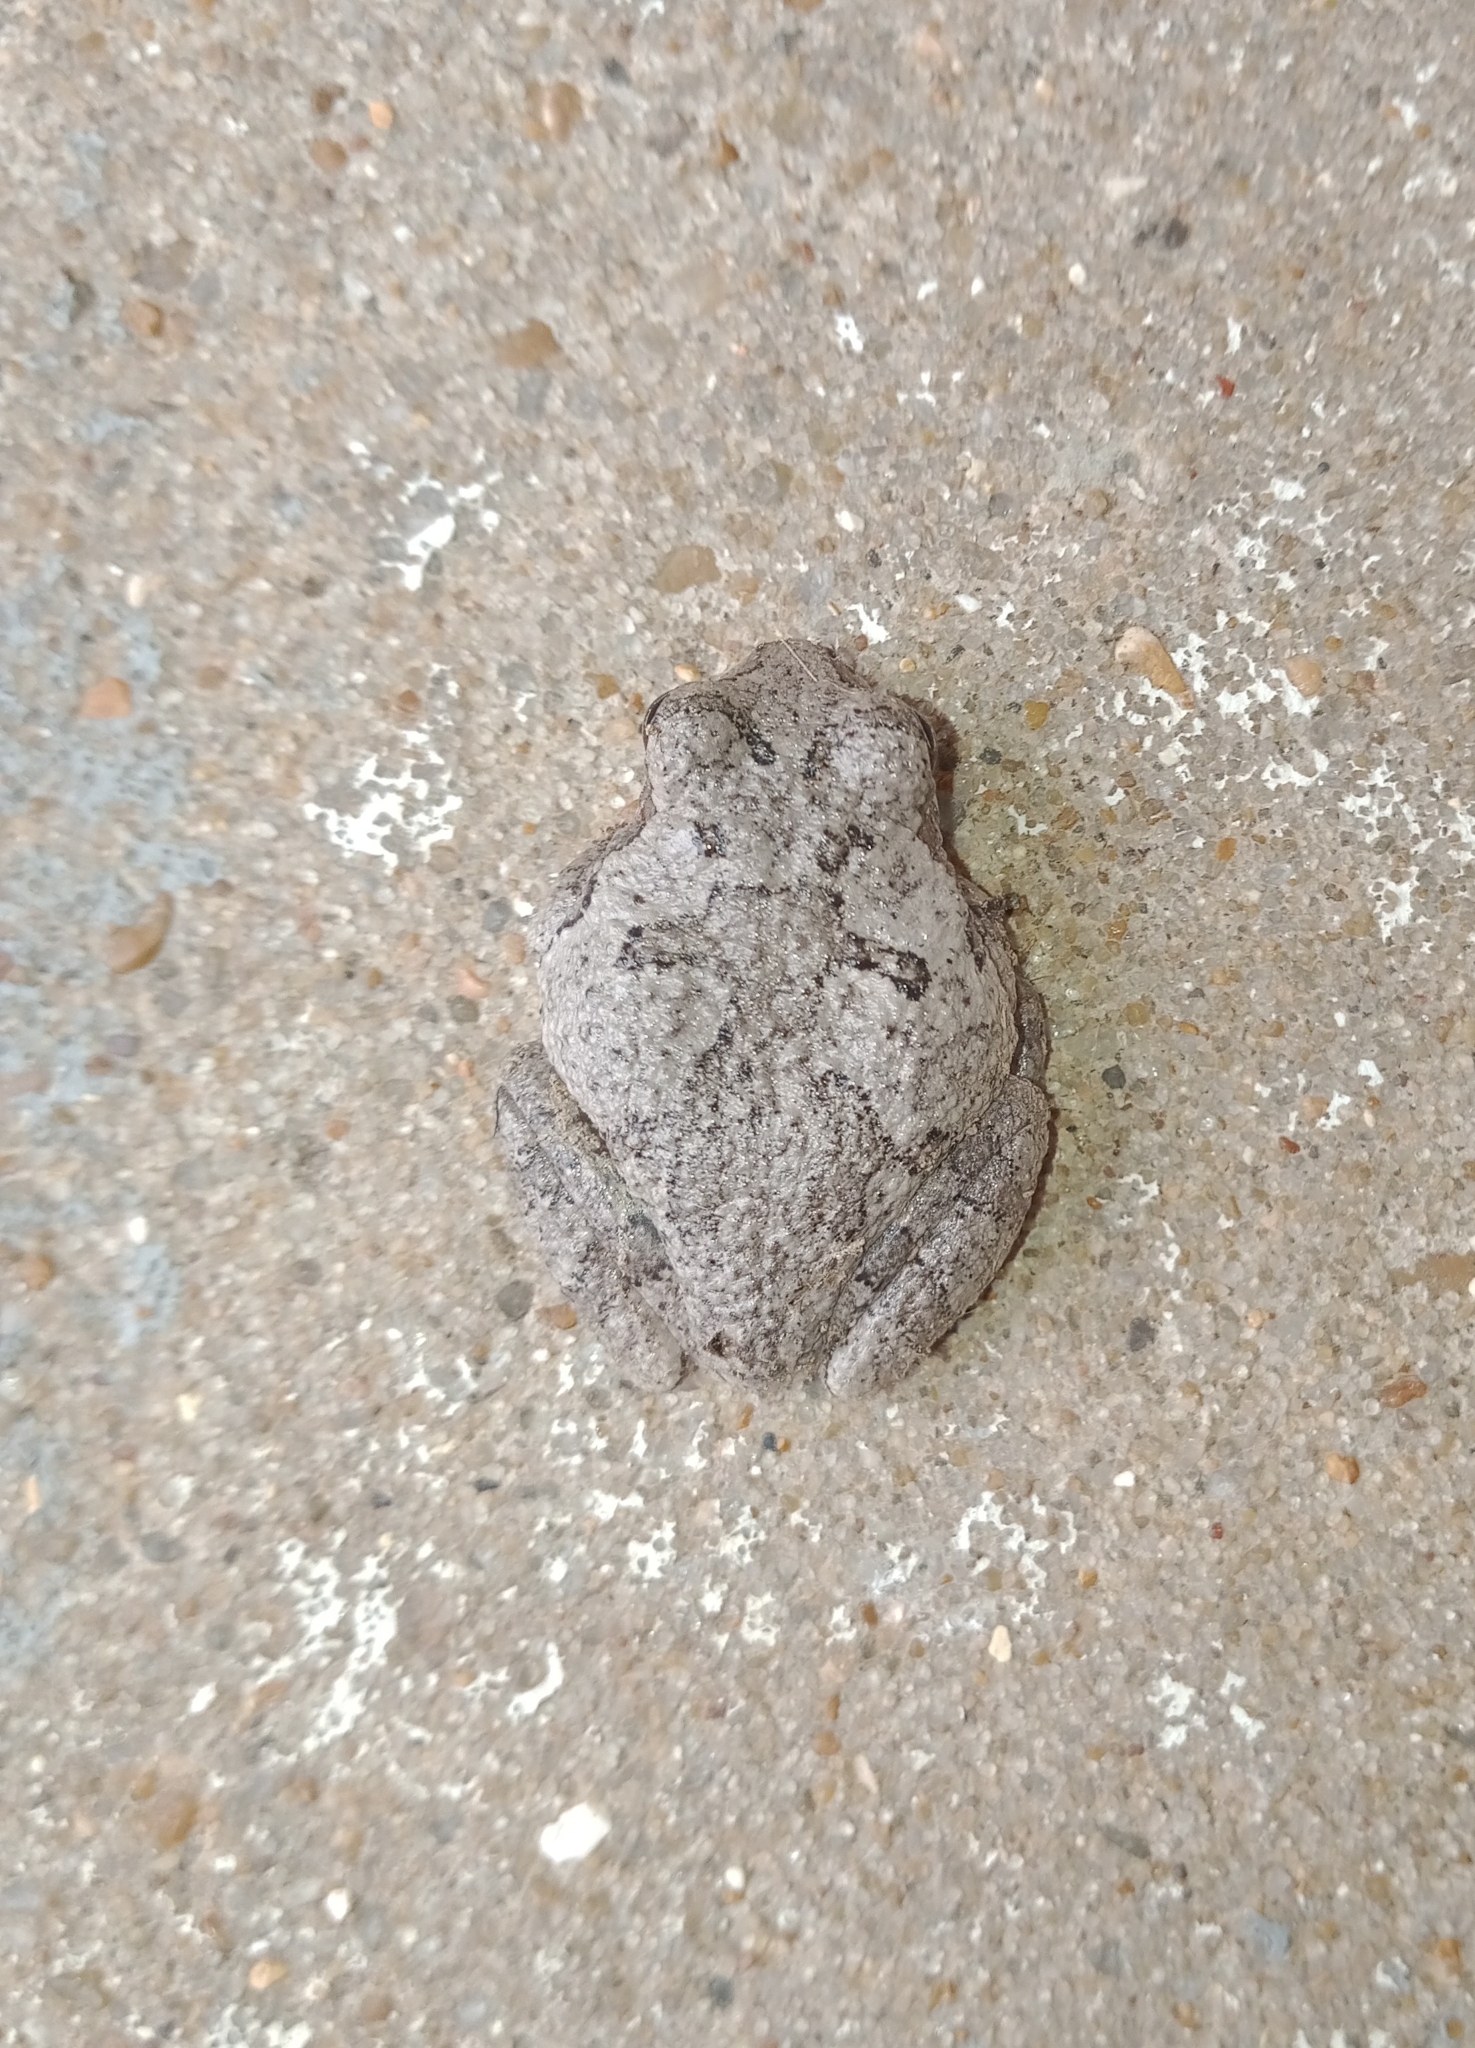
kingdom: Animalia
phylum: Chordata
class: Amphibia
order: Anura
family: Hylidae
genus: Dryophytes
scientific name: Dryophytes chrysoscelis
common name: Cope's gray treefrog
